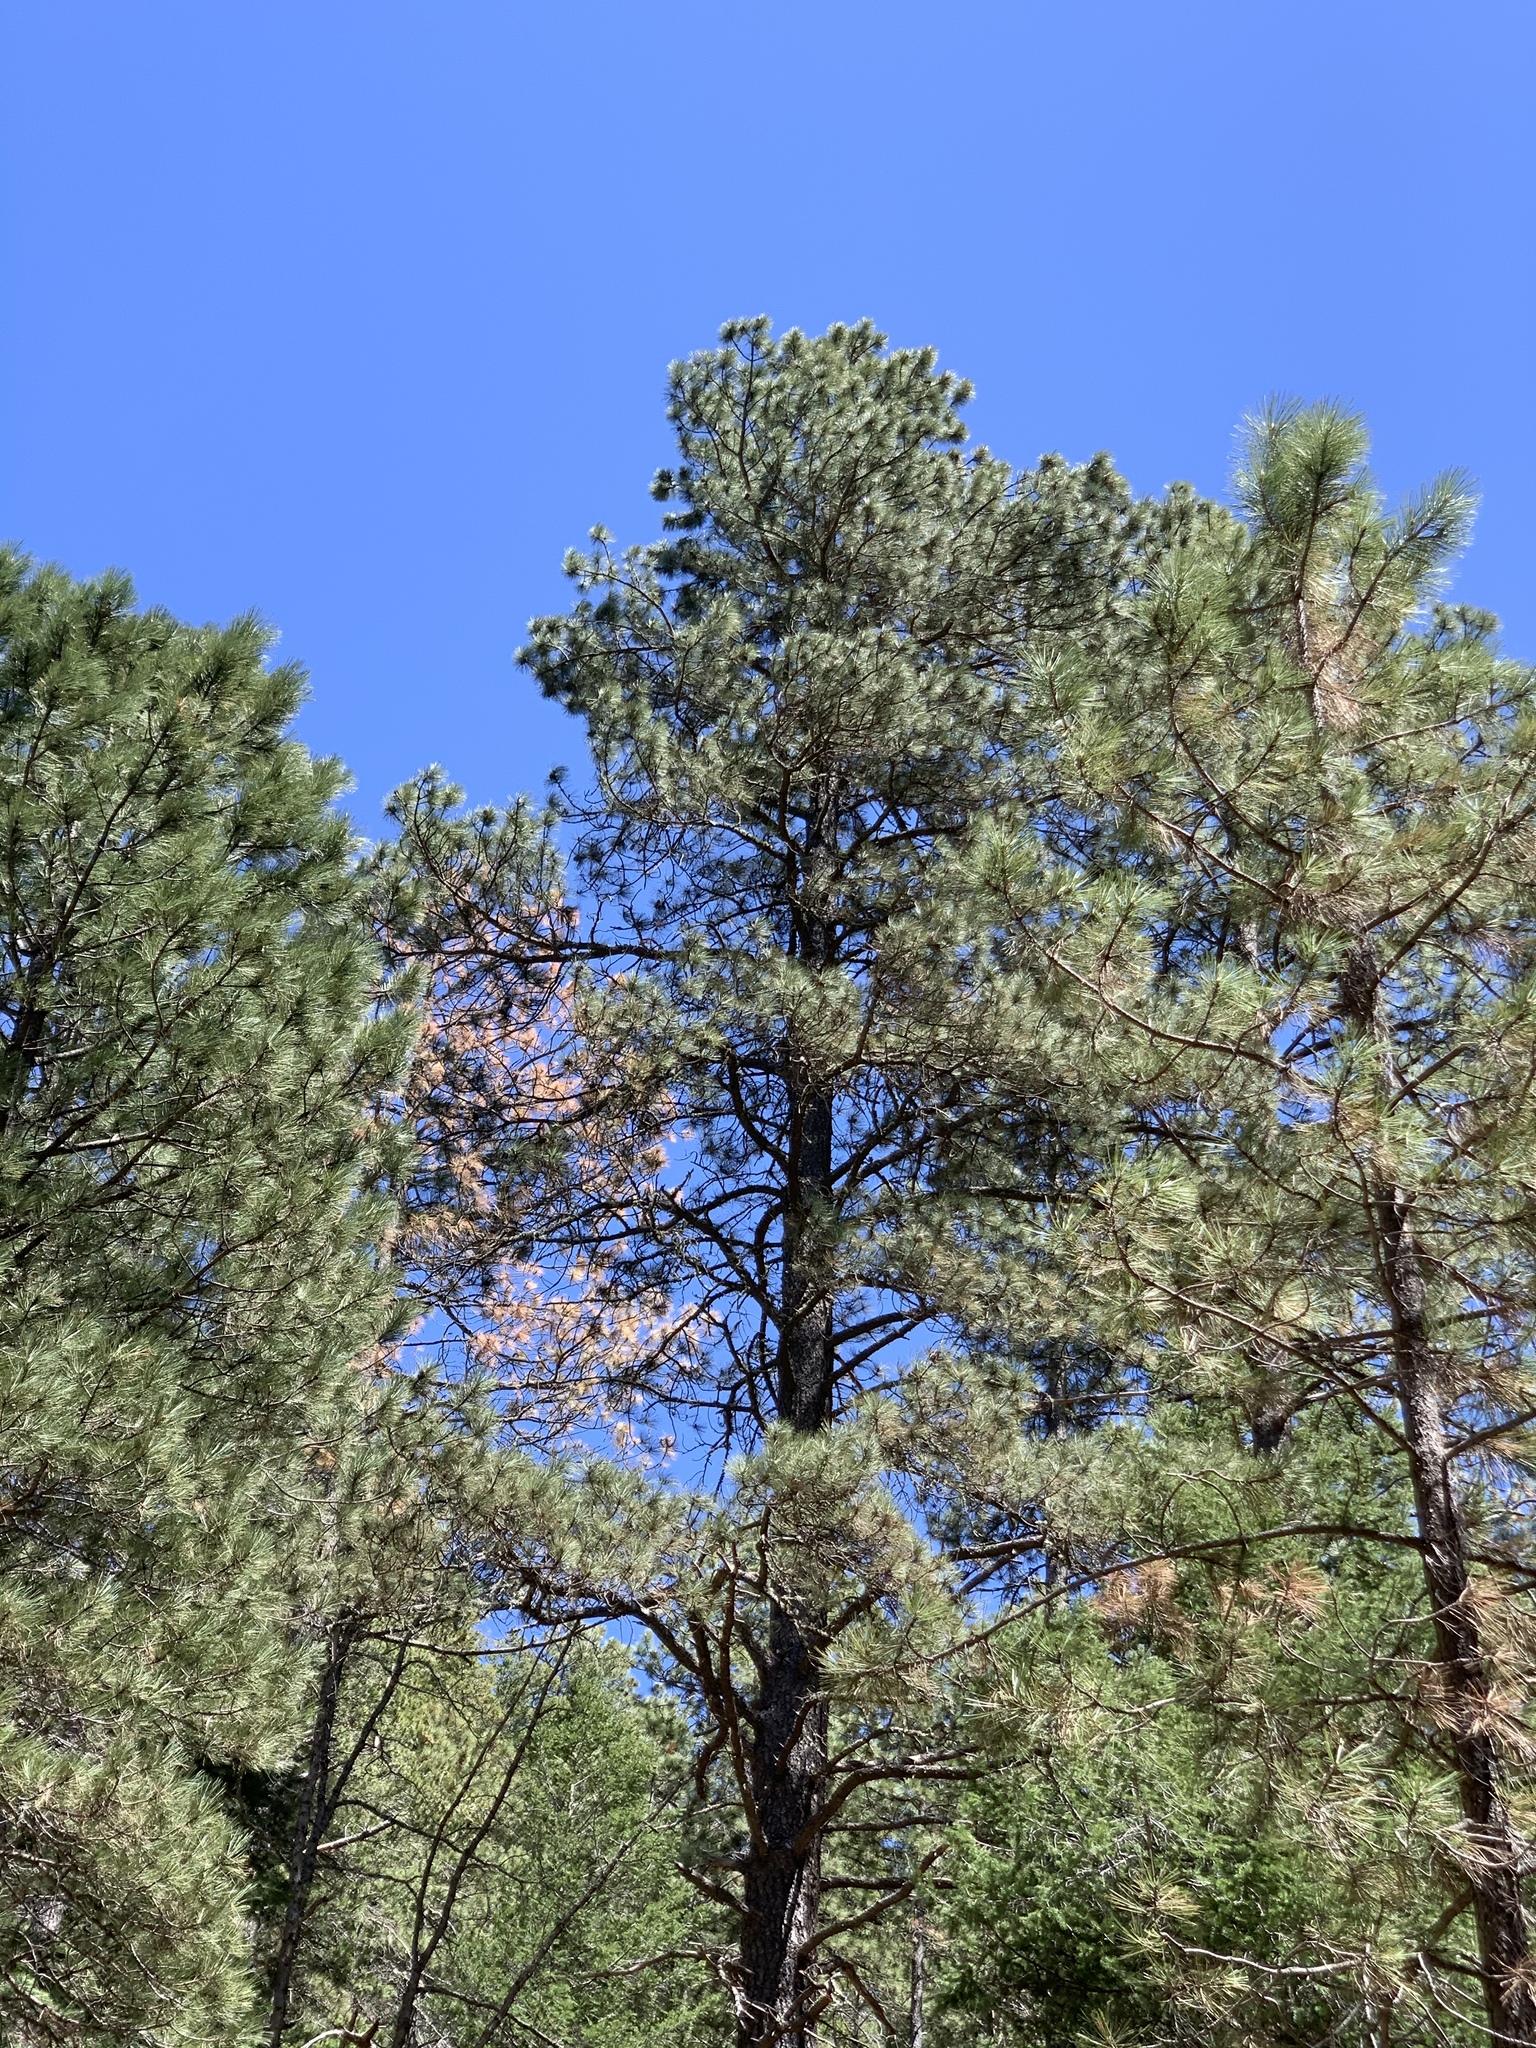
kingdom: Plantae
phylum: Tracheophyta
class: Pinopsida
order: Pinales
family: Pinaceae
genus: Pinus
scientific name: Pinus ponderosa
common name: Western yellow-pine
